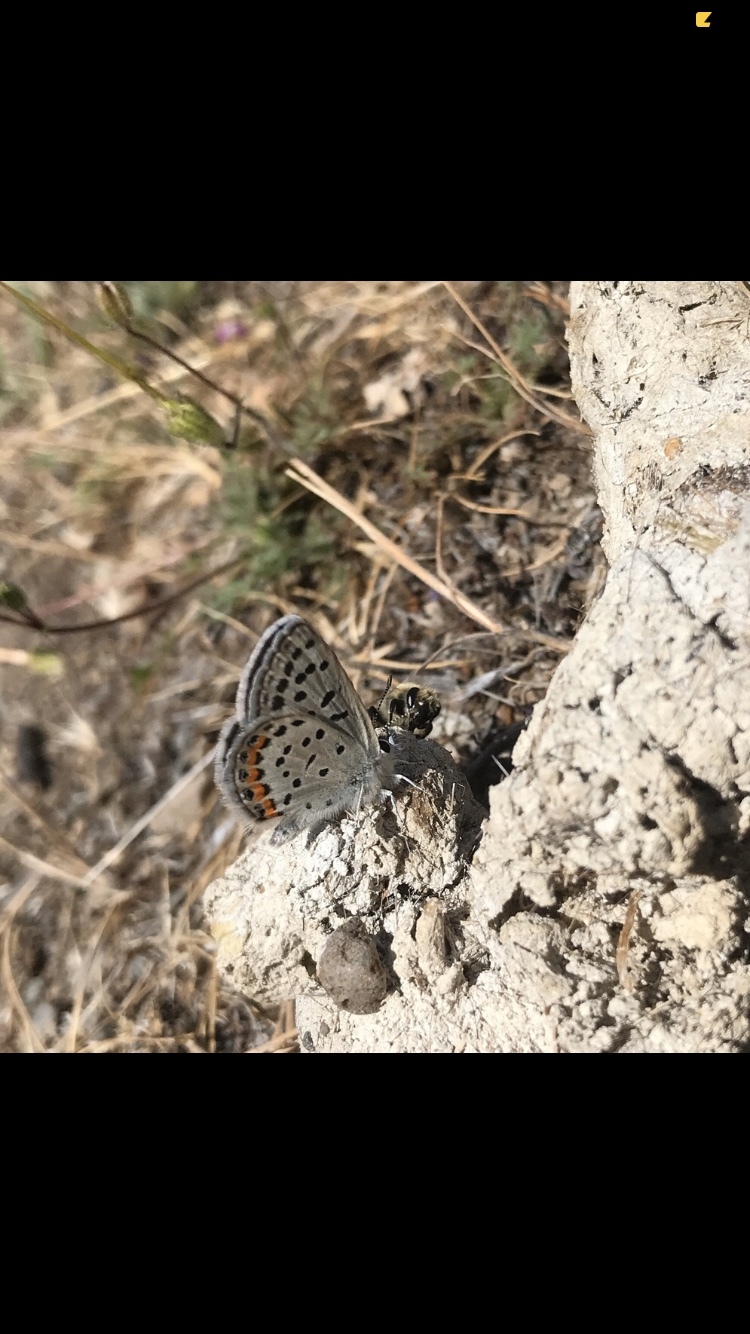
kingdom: Animalia
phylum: Arthropoda
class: Insecta
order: Lepidoptera
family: Lycaenidae
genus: Icaricia
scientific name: Icaricia lupini
